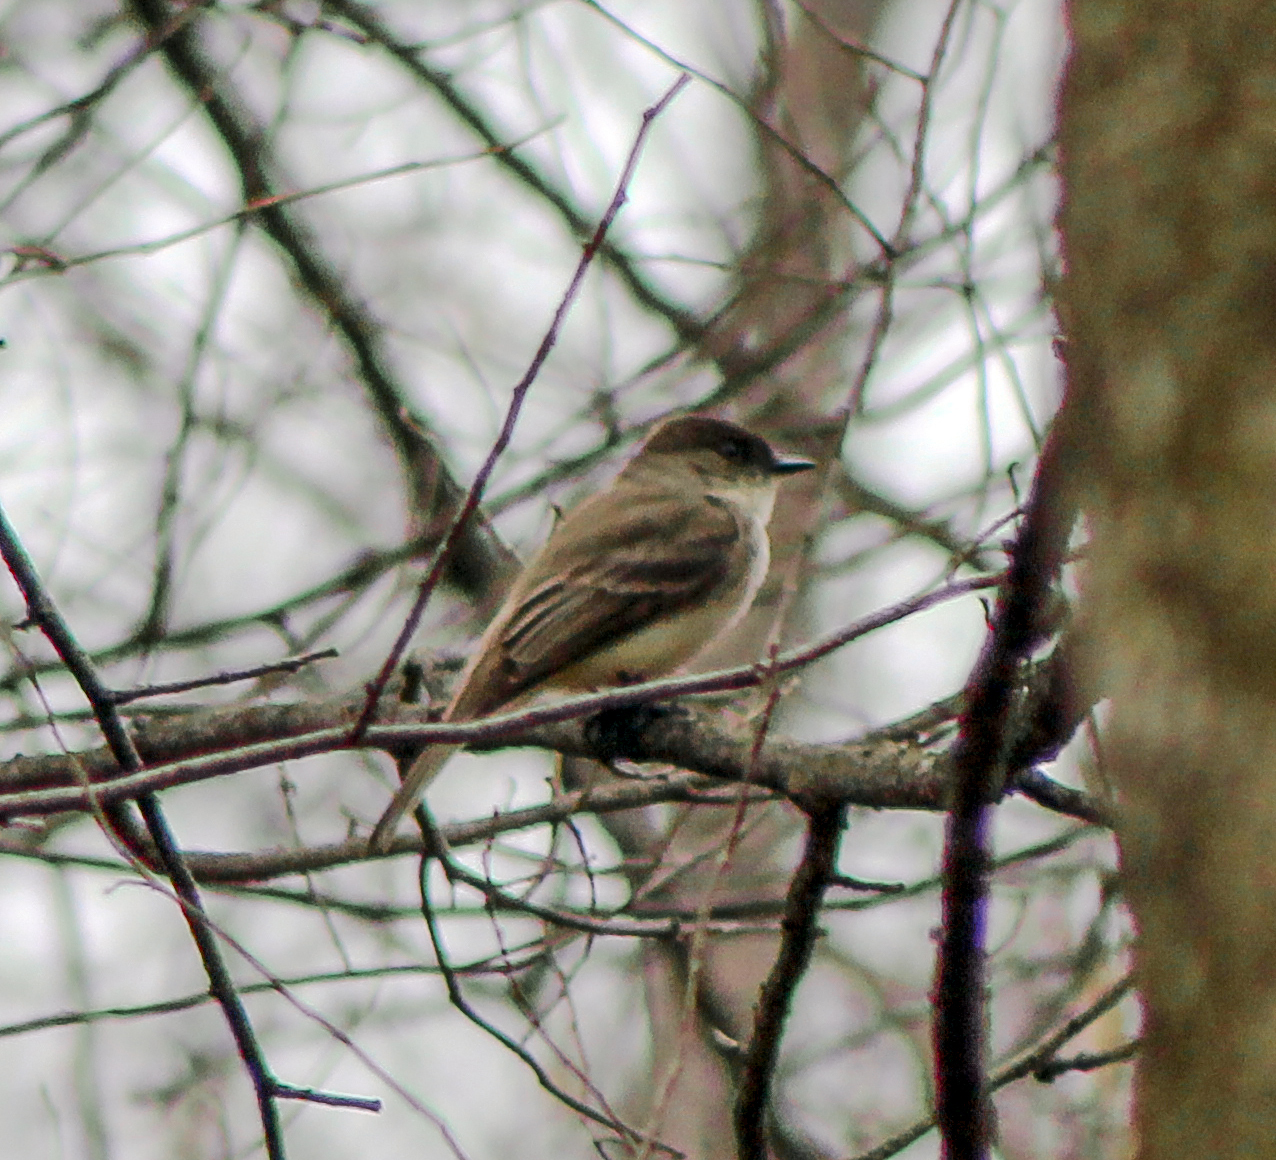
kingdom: Animalia
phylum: Chordata
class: Aves
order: Passeriformes
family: Tyrannidae
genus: Sayornis
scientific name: Sayornis phoebe
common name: Eastern phoebe
